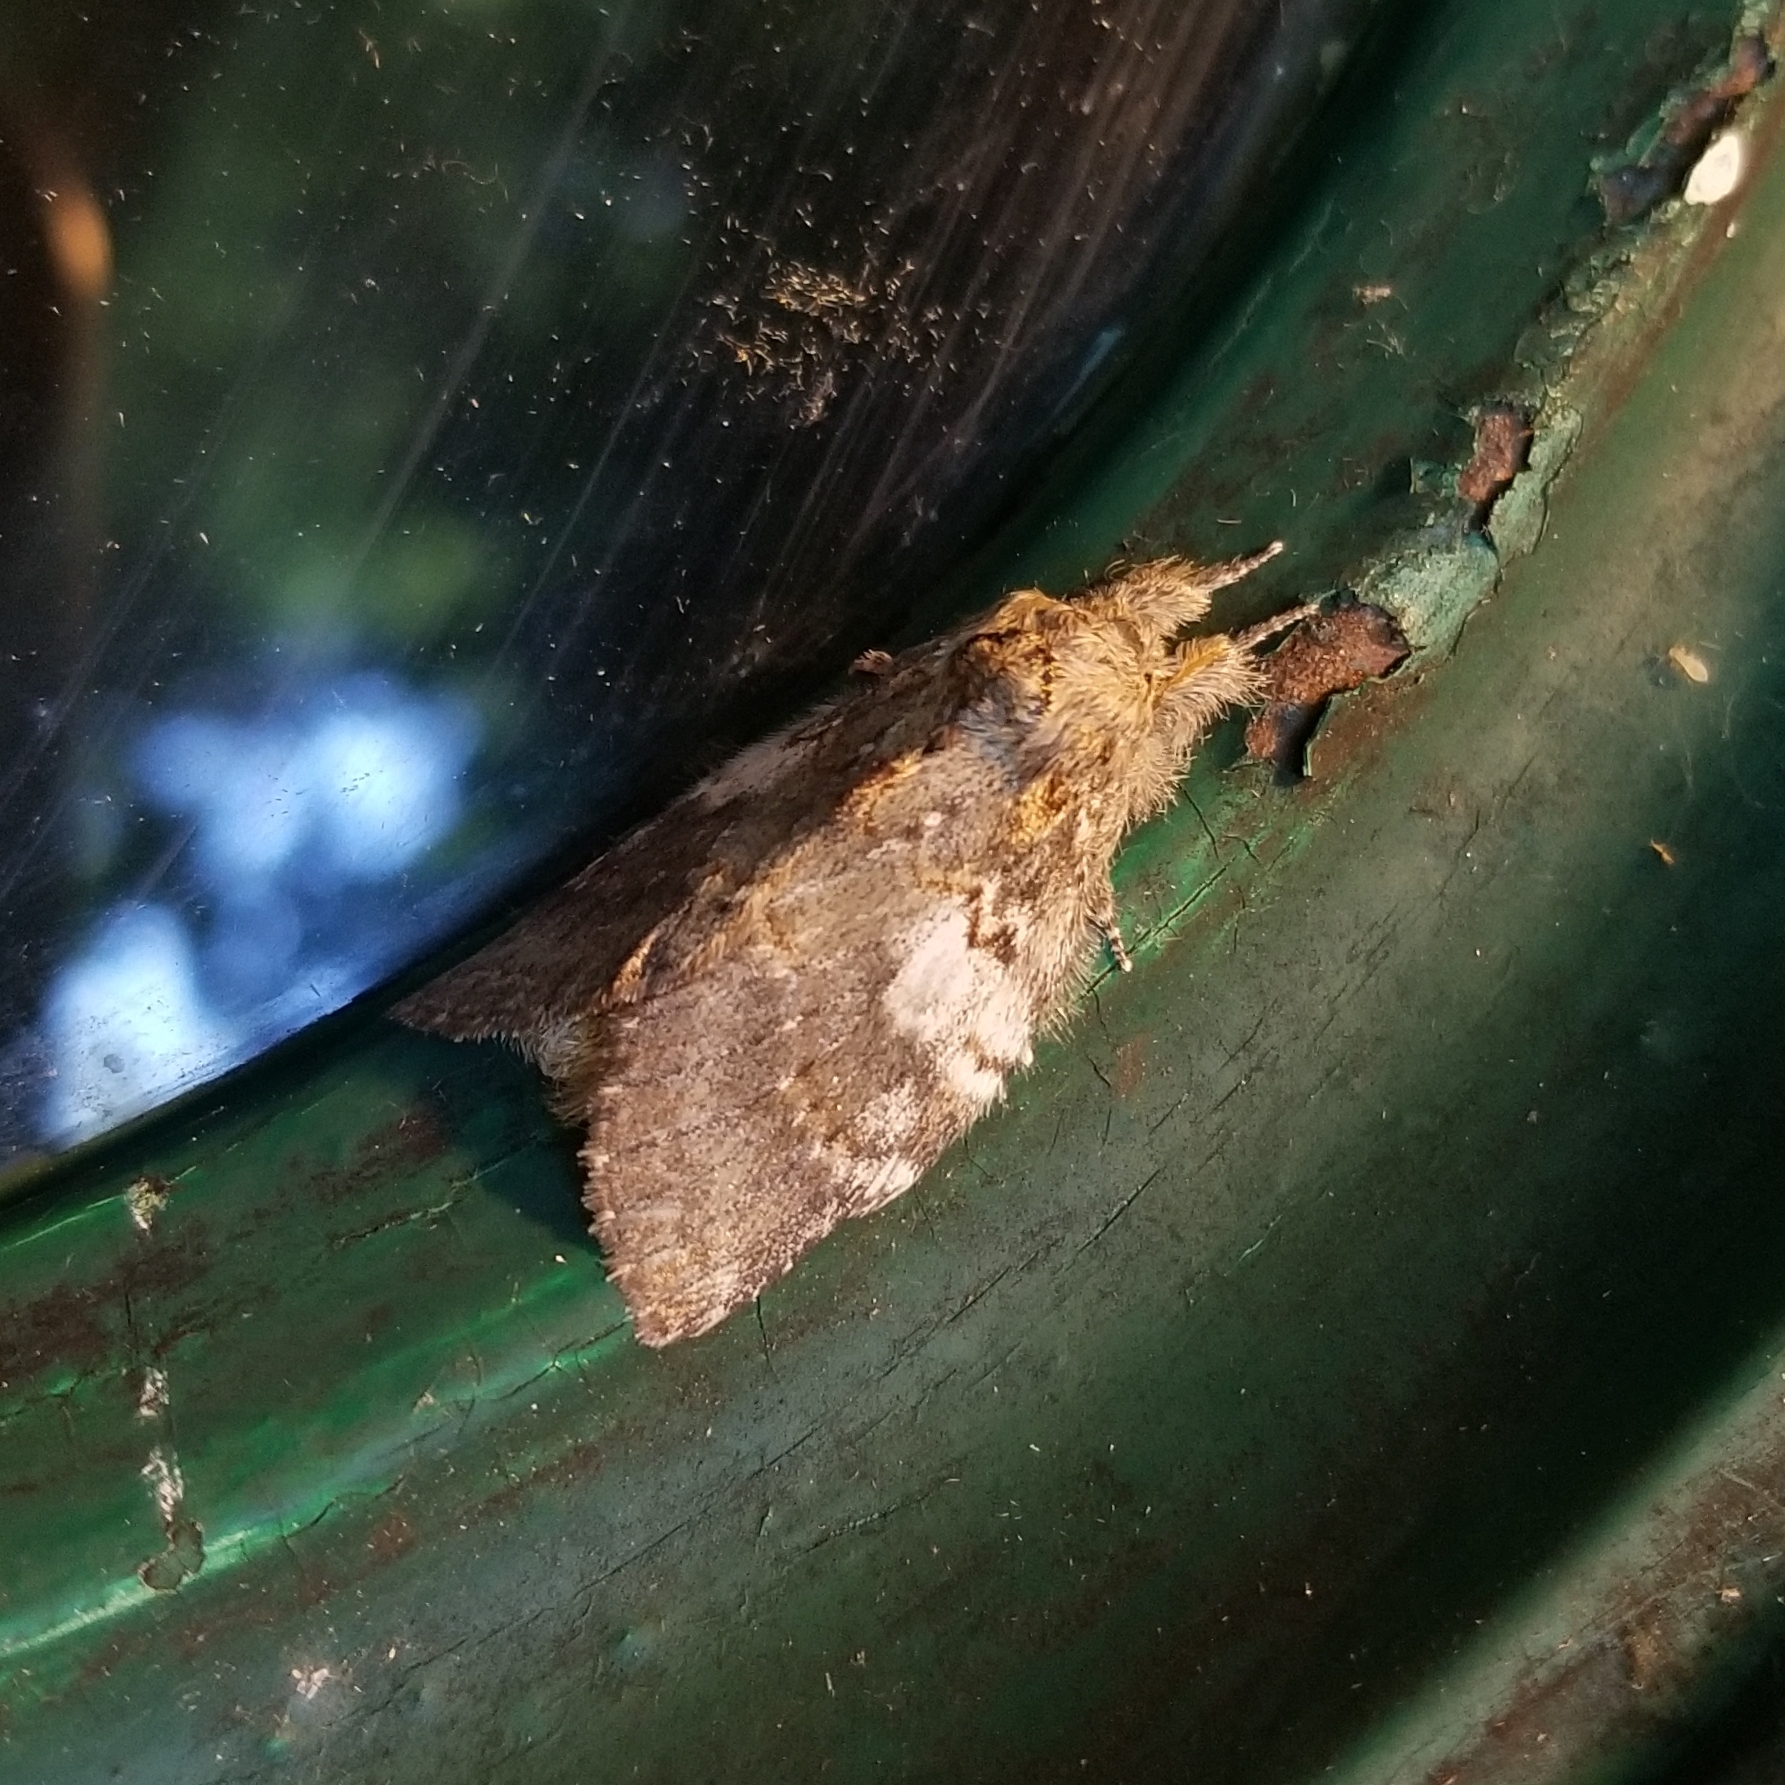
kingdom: Animalia
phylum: Arthropoda
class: Insecta
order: Lepidoptera
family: Notodontidae
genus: Peridea
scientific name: Peridea angulosa
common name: Angulose prominent
